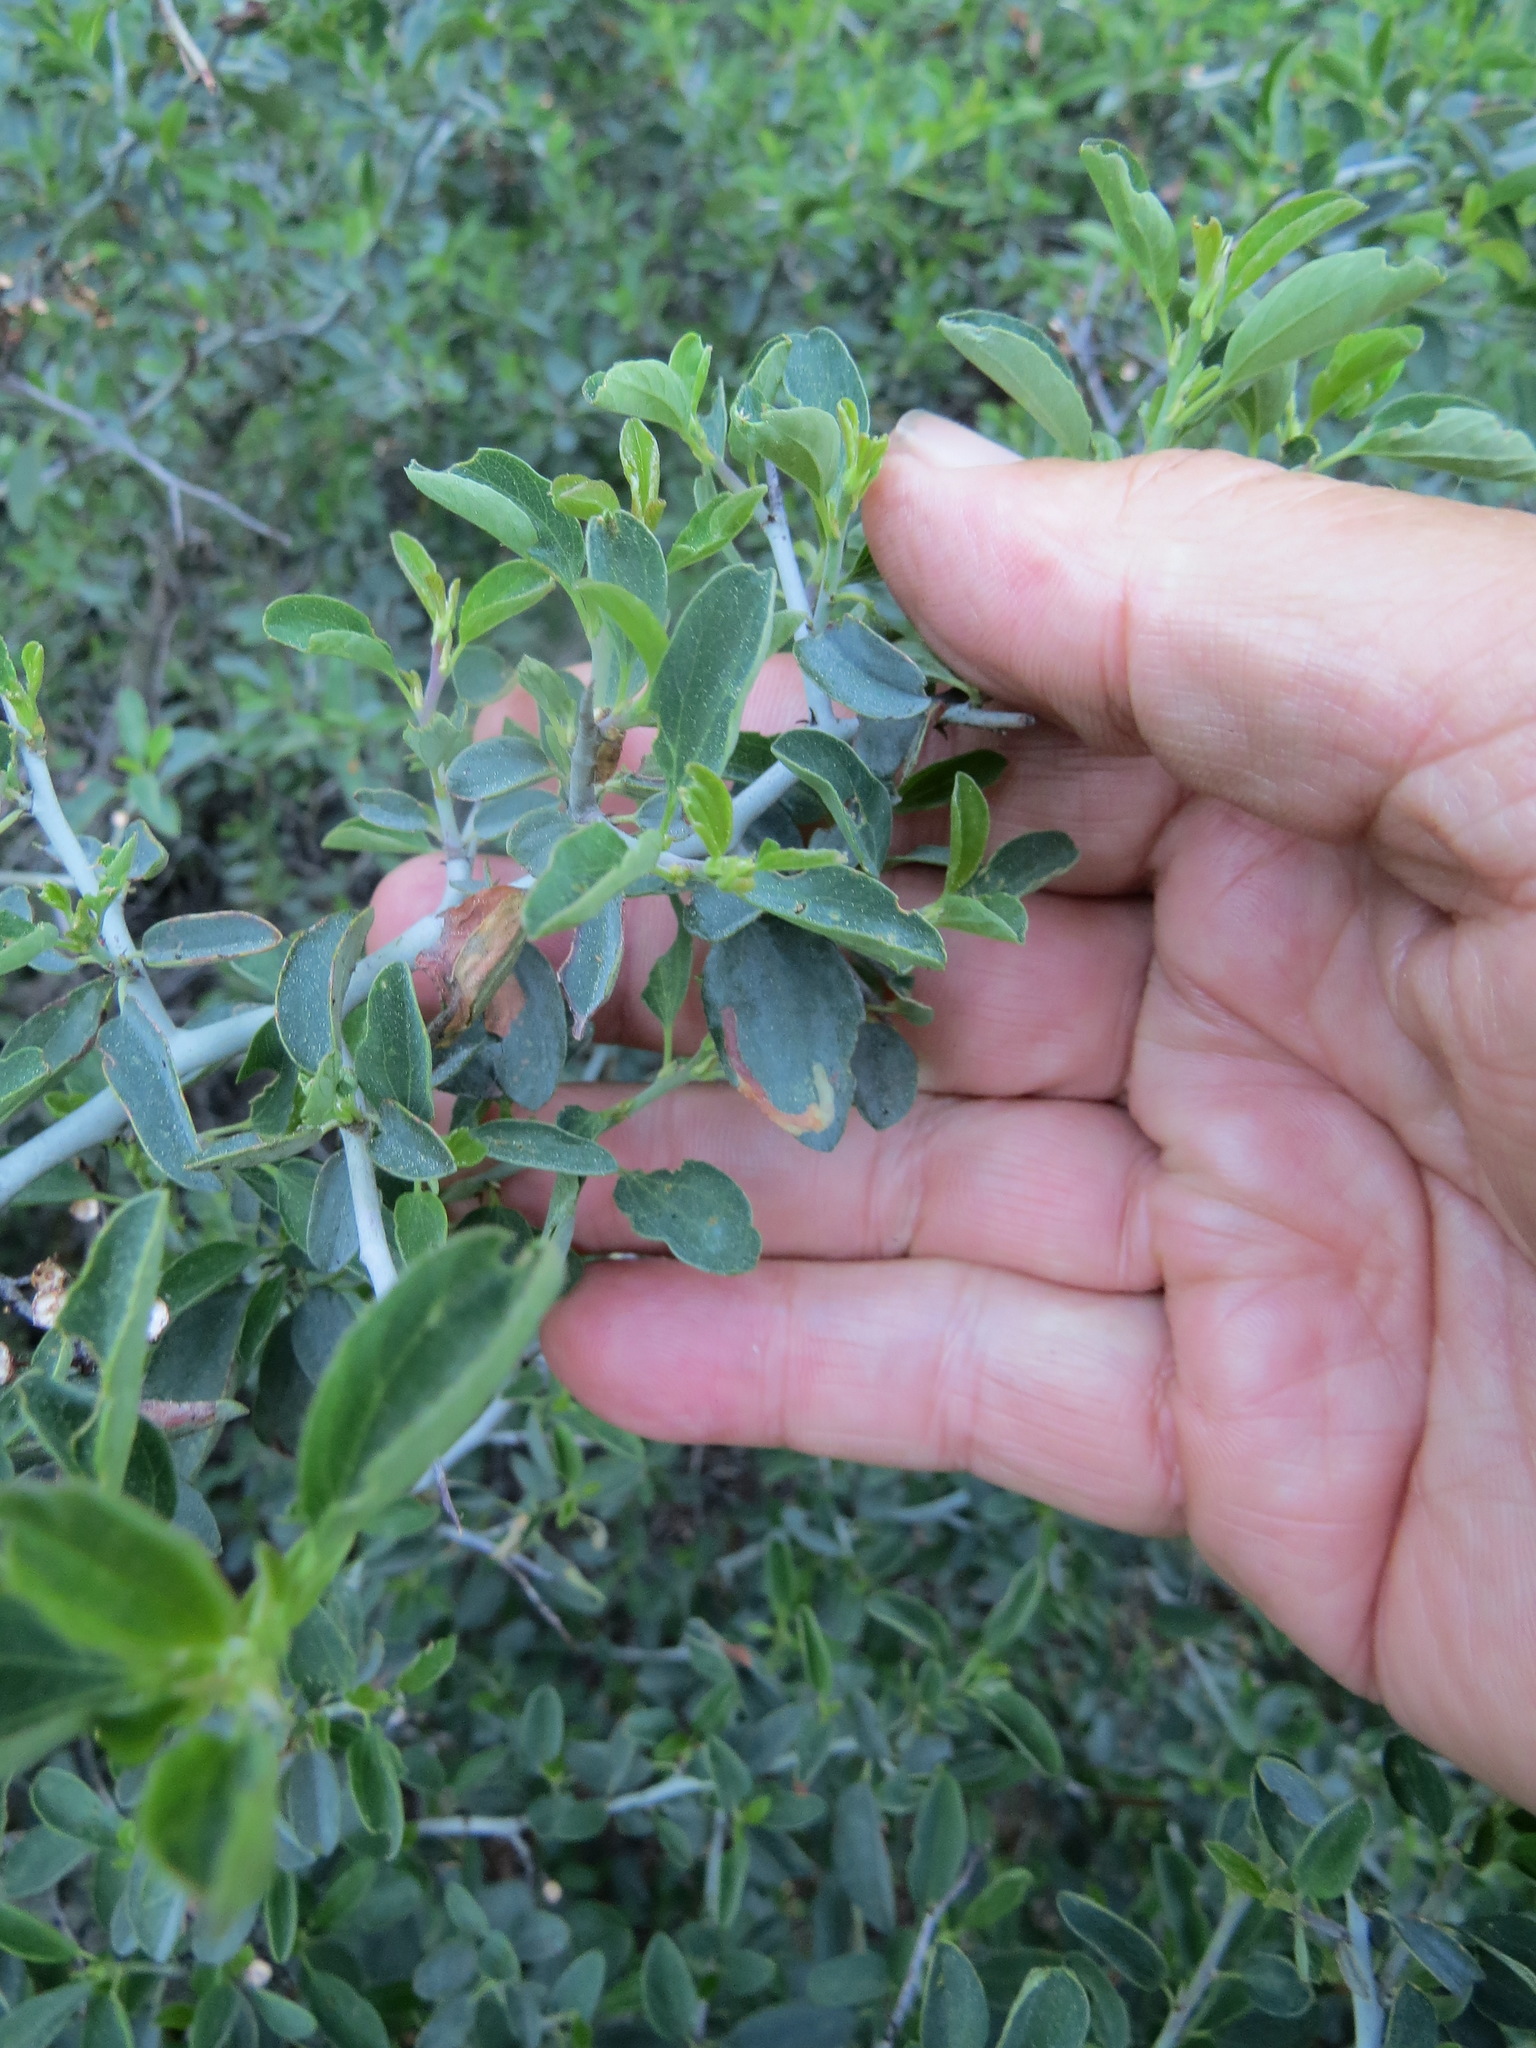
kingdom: Plantae
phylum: Tracheophyta
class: Magnoliopsida
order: Rosales
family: Rhamnaceae
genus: Ceanothus
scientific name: Ceanothus cordulatus
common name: Mountain whitethorn
